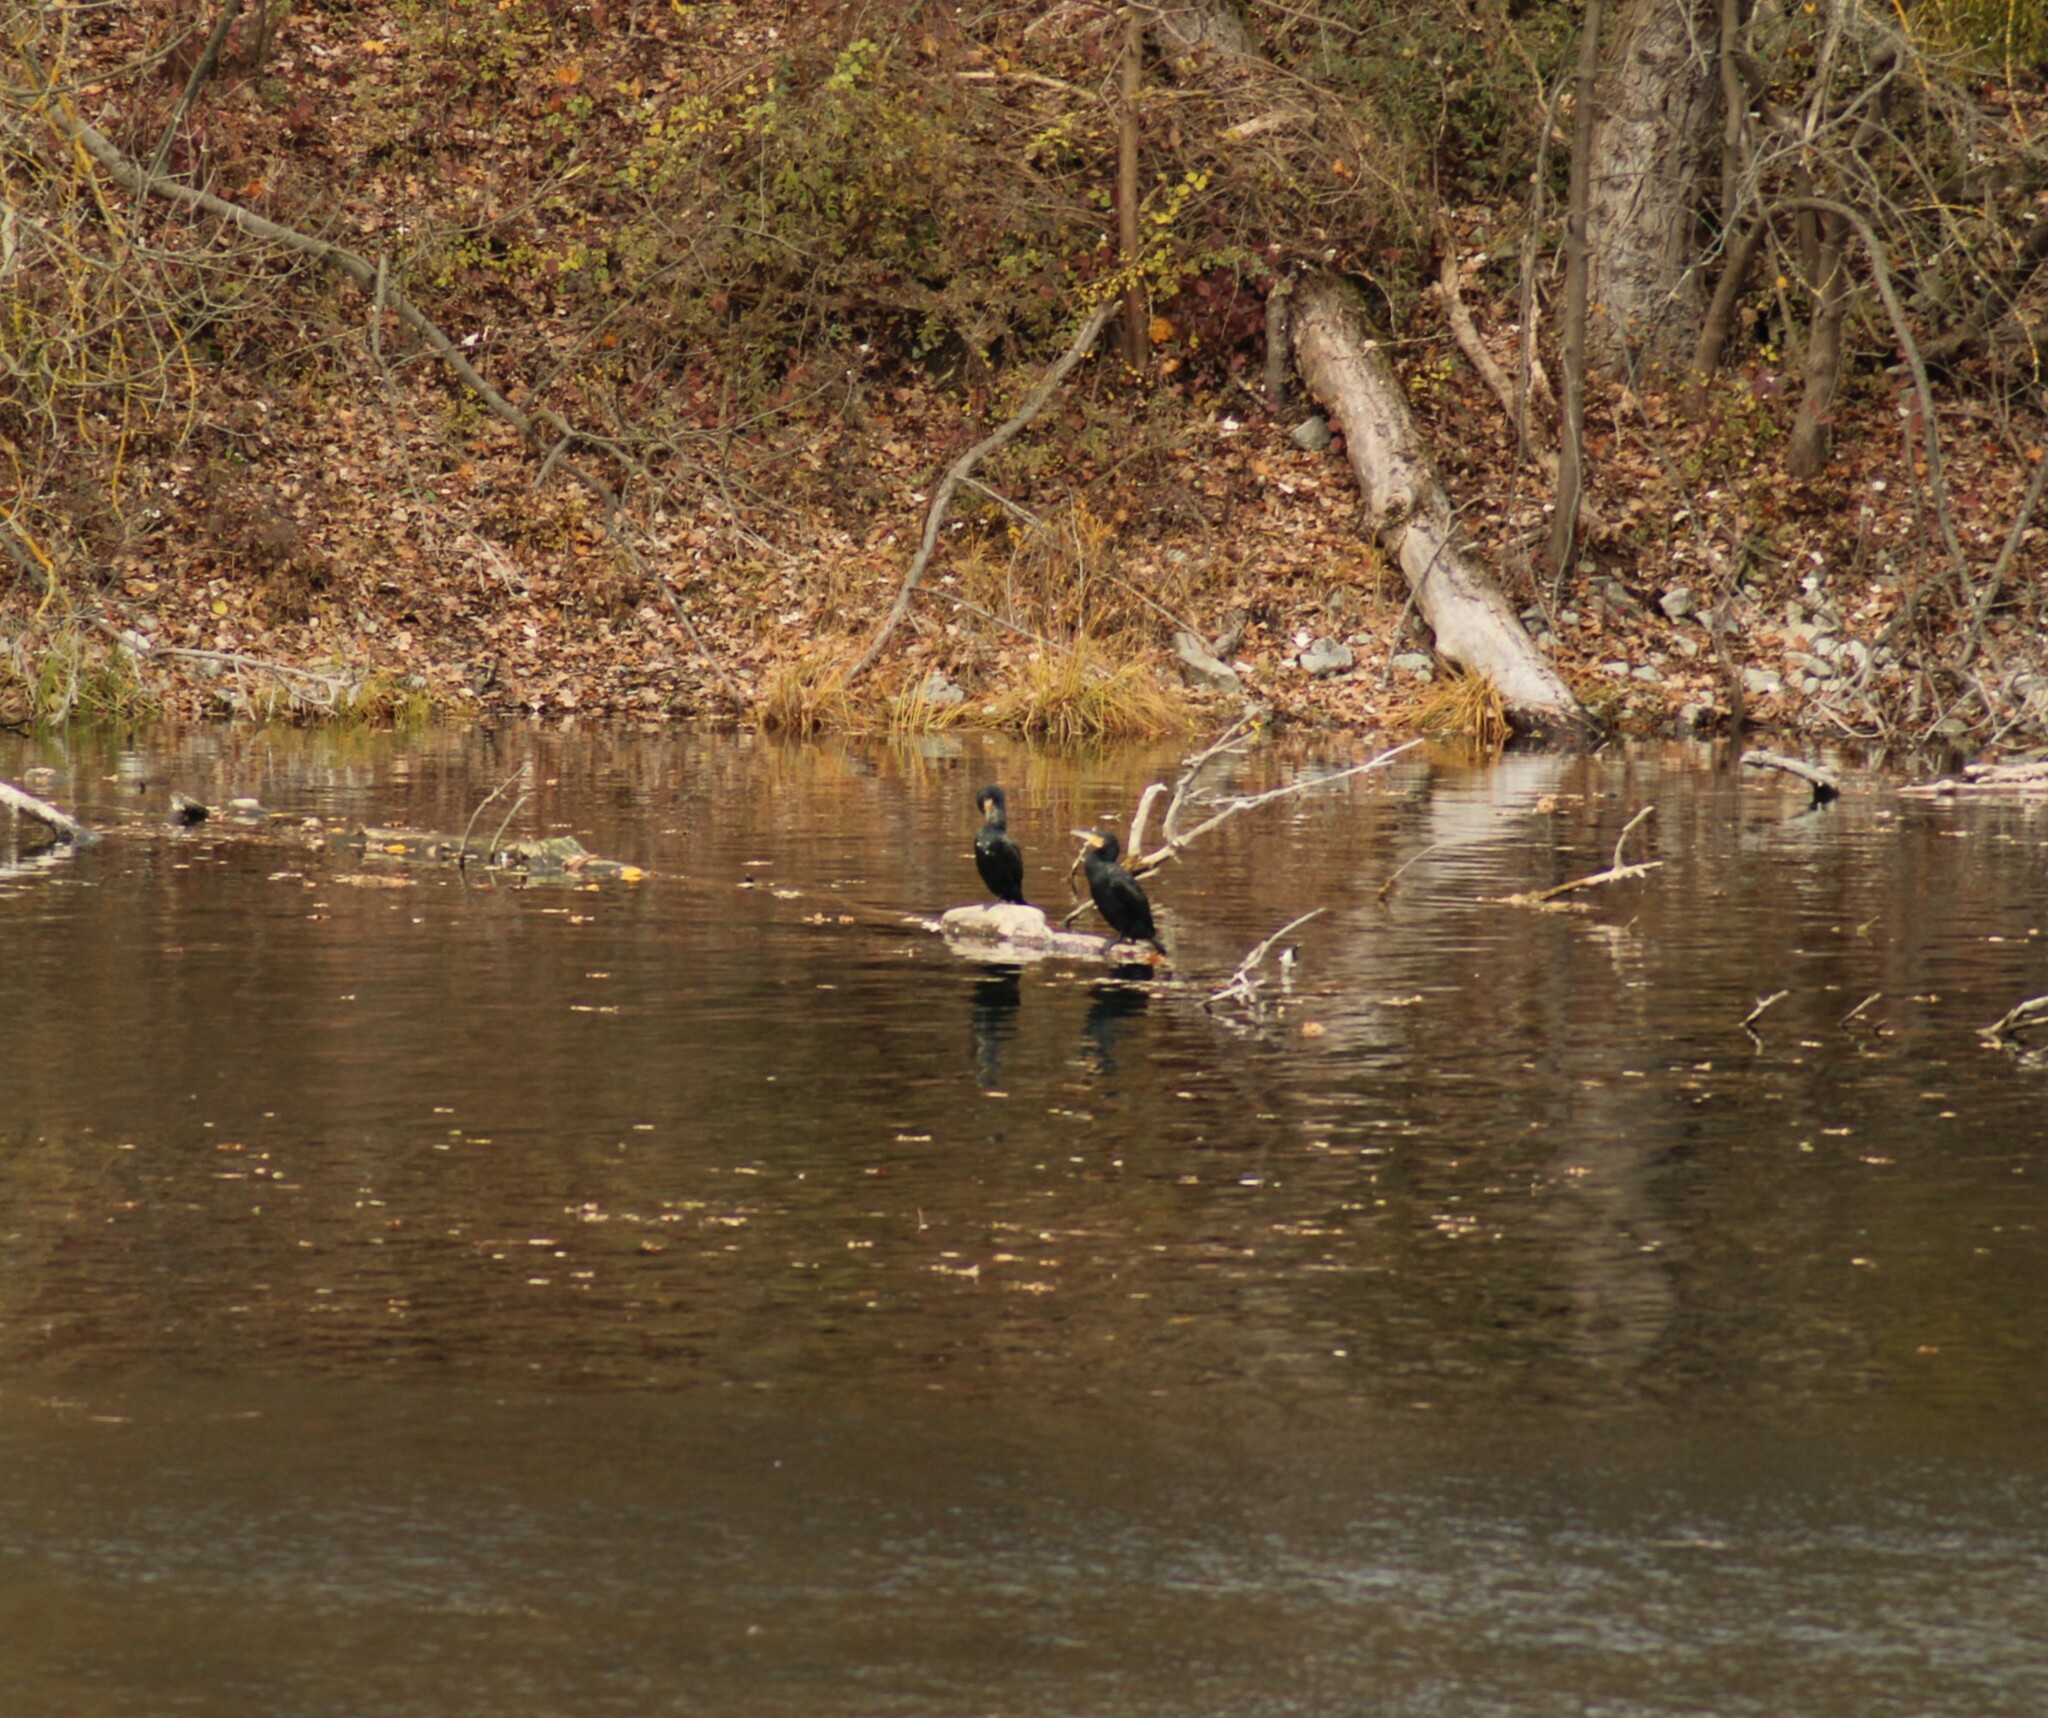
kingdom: Animalia
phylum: Chordata
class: Aves
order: Suliformes
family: Phalacrocoracidae
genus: Phalacrocorax
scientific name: Phalacrocorax carbo
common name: Great cormorant
